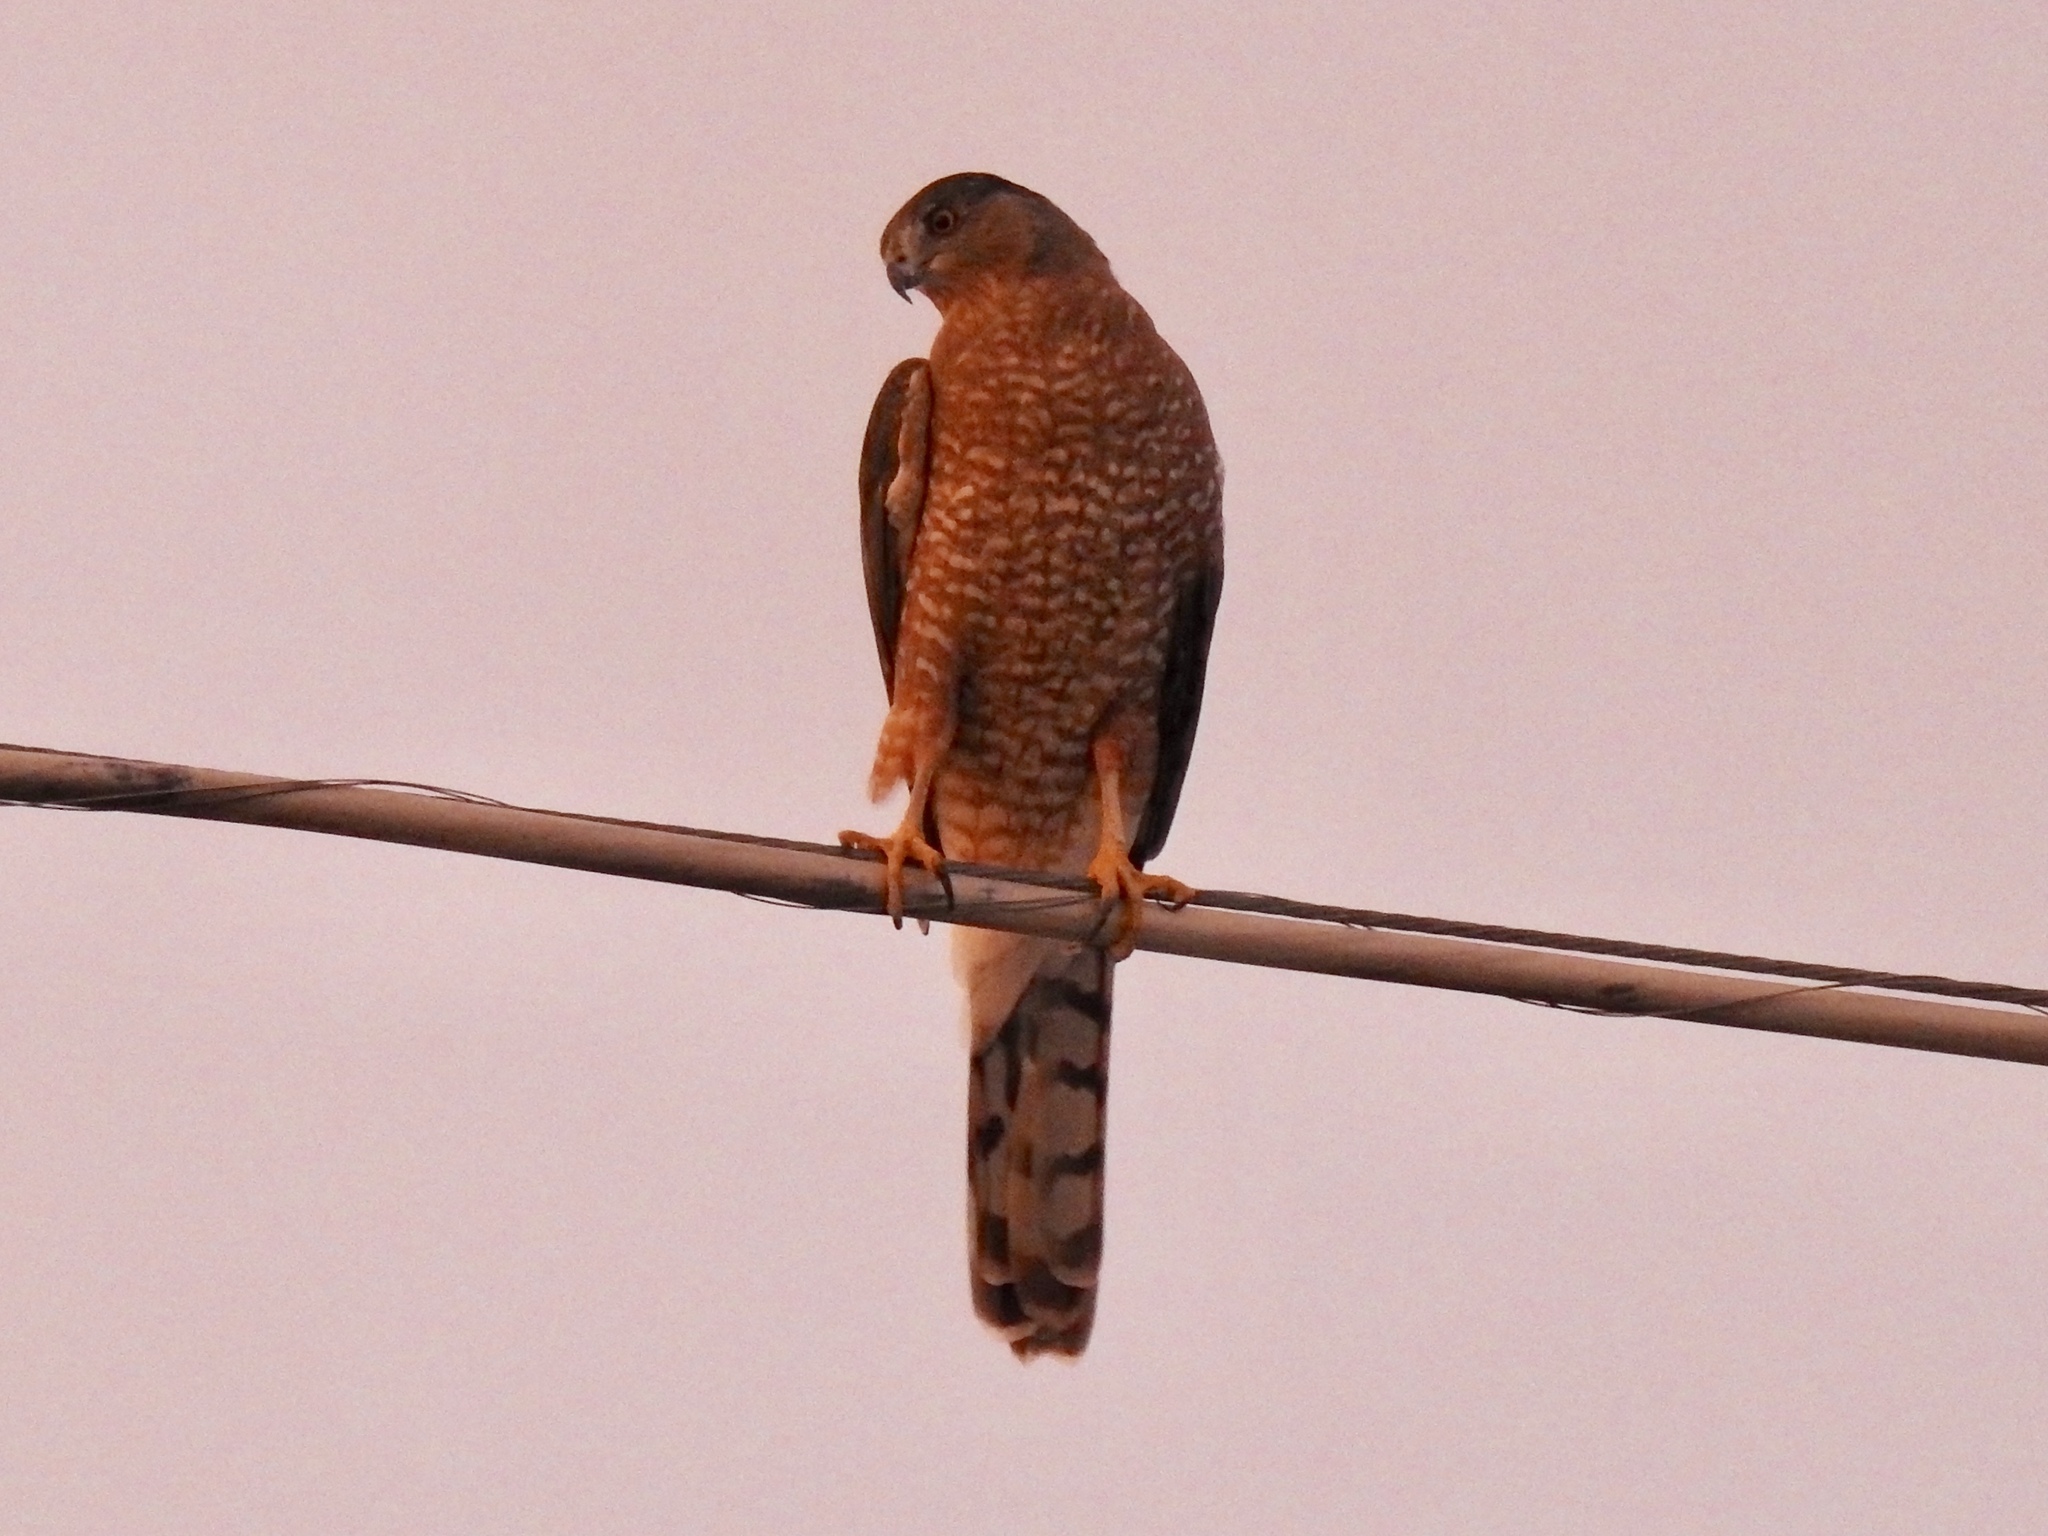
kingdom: Animalia
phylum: Chordata
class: Aves
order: Accipitriformes
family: Accipitridae
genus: Accipiter
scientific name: Accipiter cooperii
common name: Cooper's hawk
